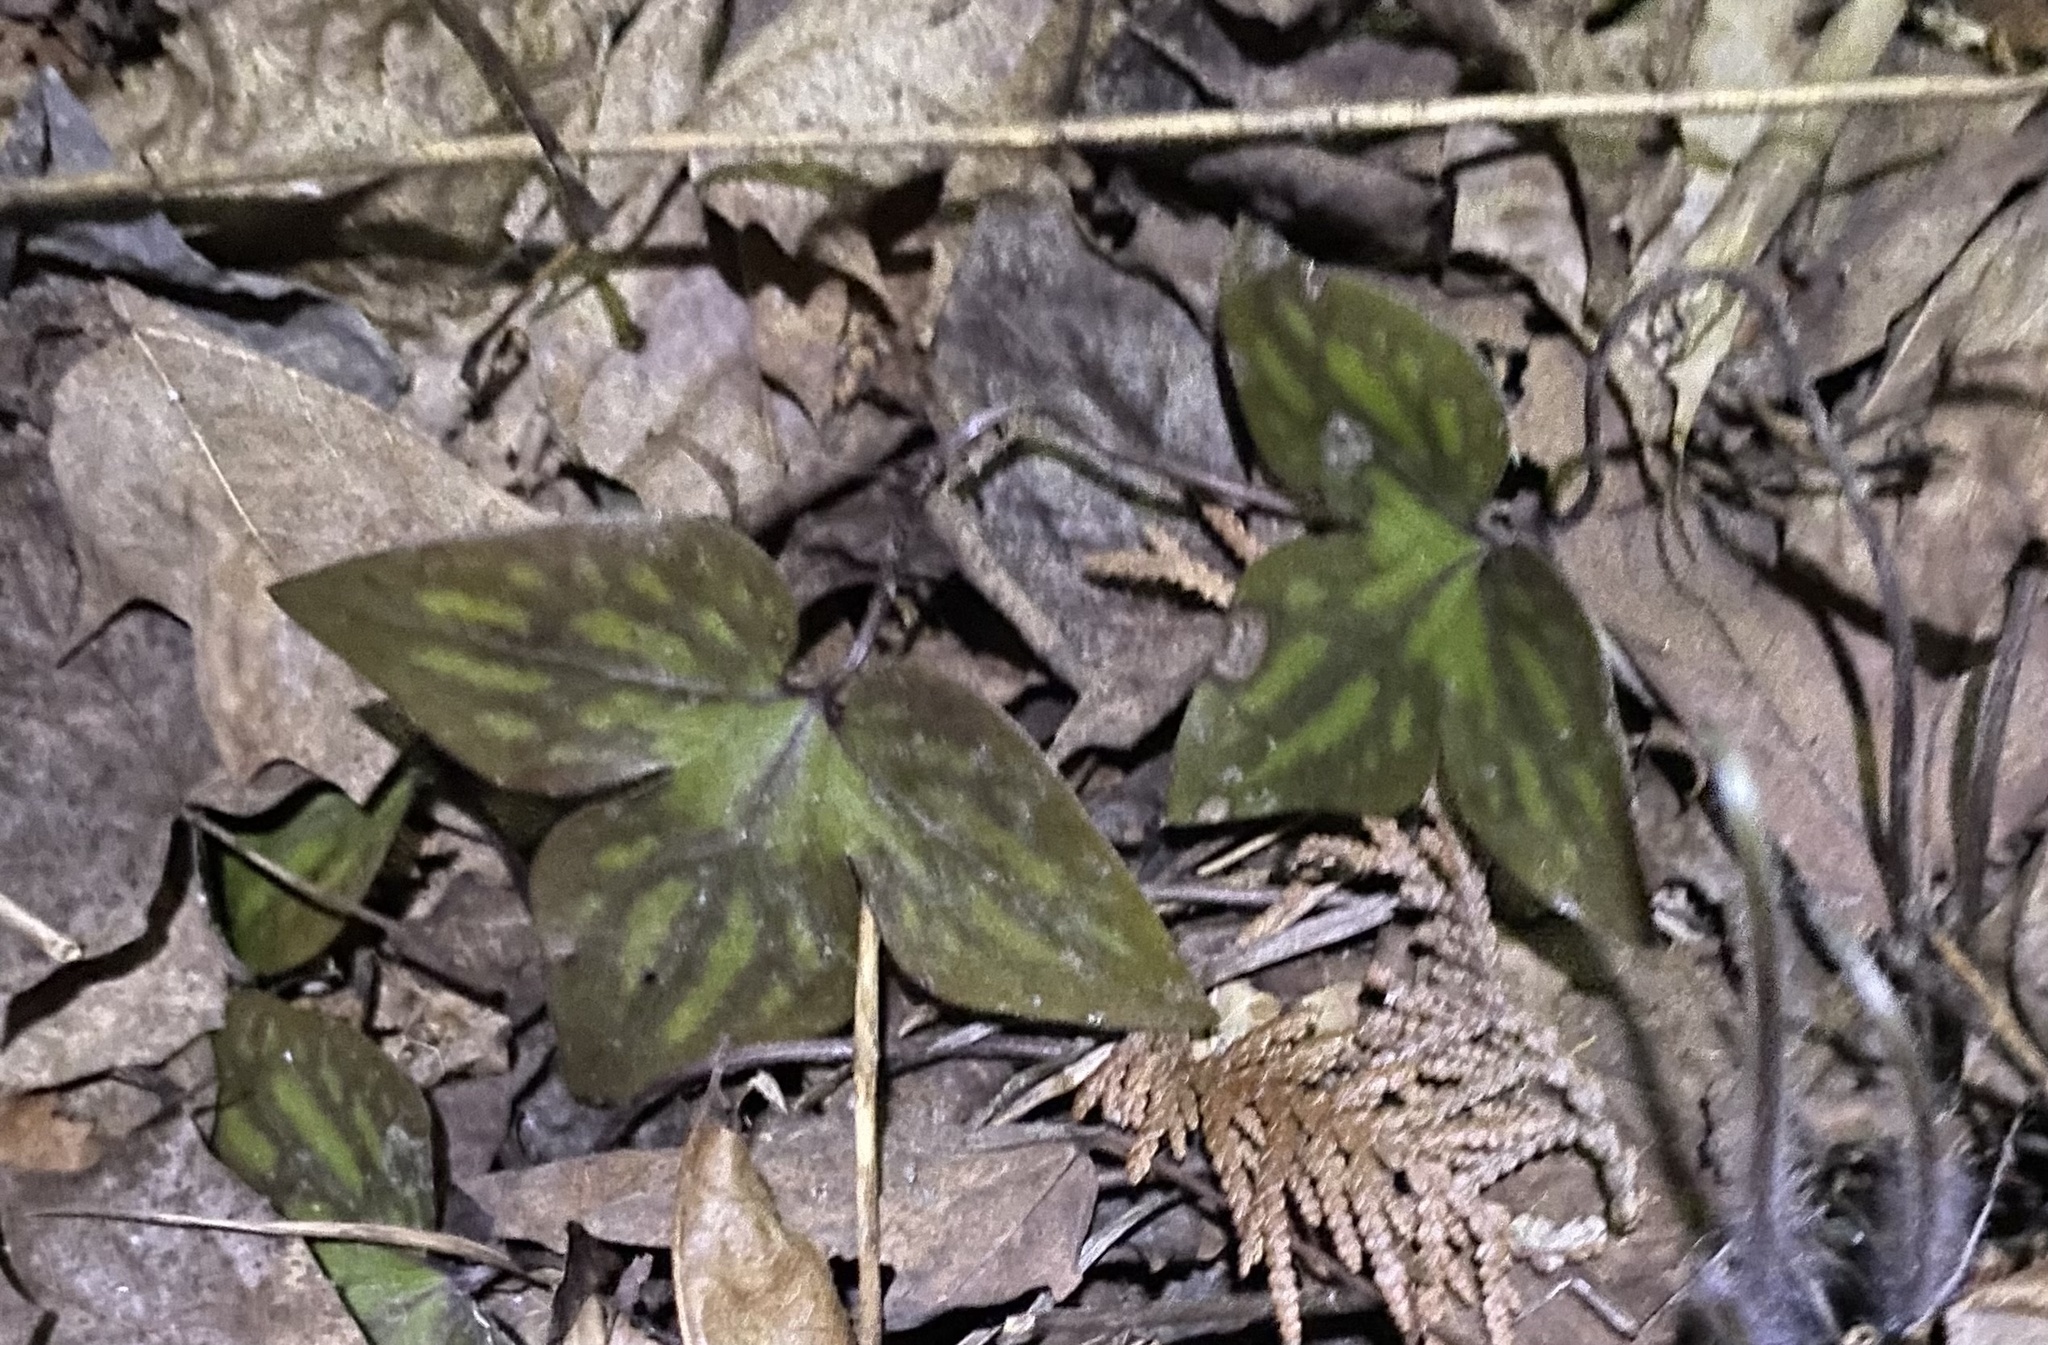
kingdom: Plantae
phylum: Tracheophyta
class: Magnoliopsida
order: Ranunculales
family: Ranunculaceae
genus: Hepatica
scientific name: Hepatica acutiloba
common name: Sharp-lobed hepatica
